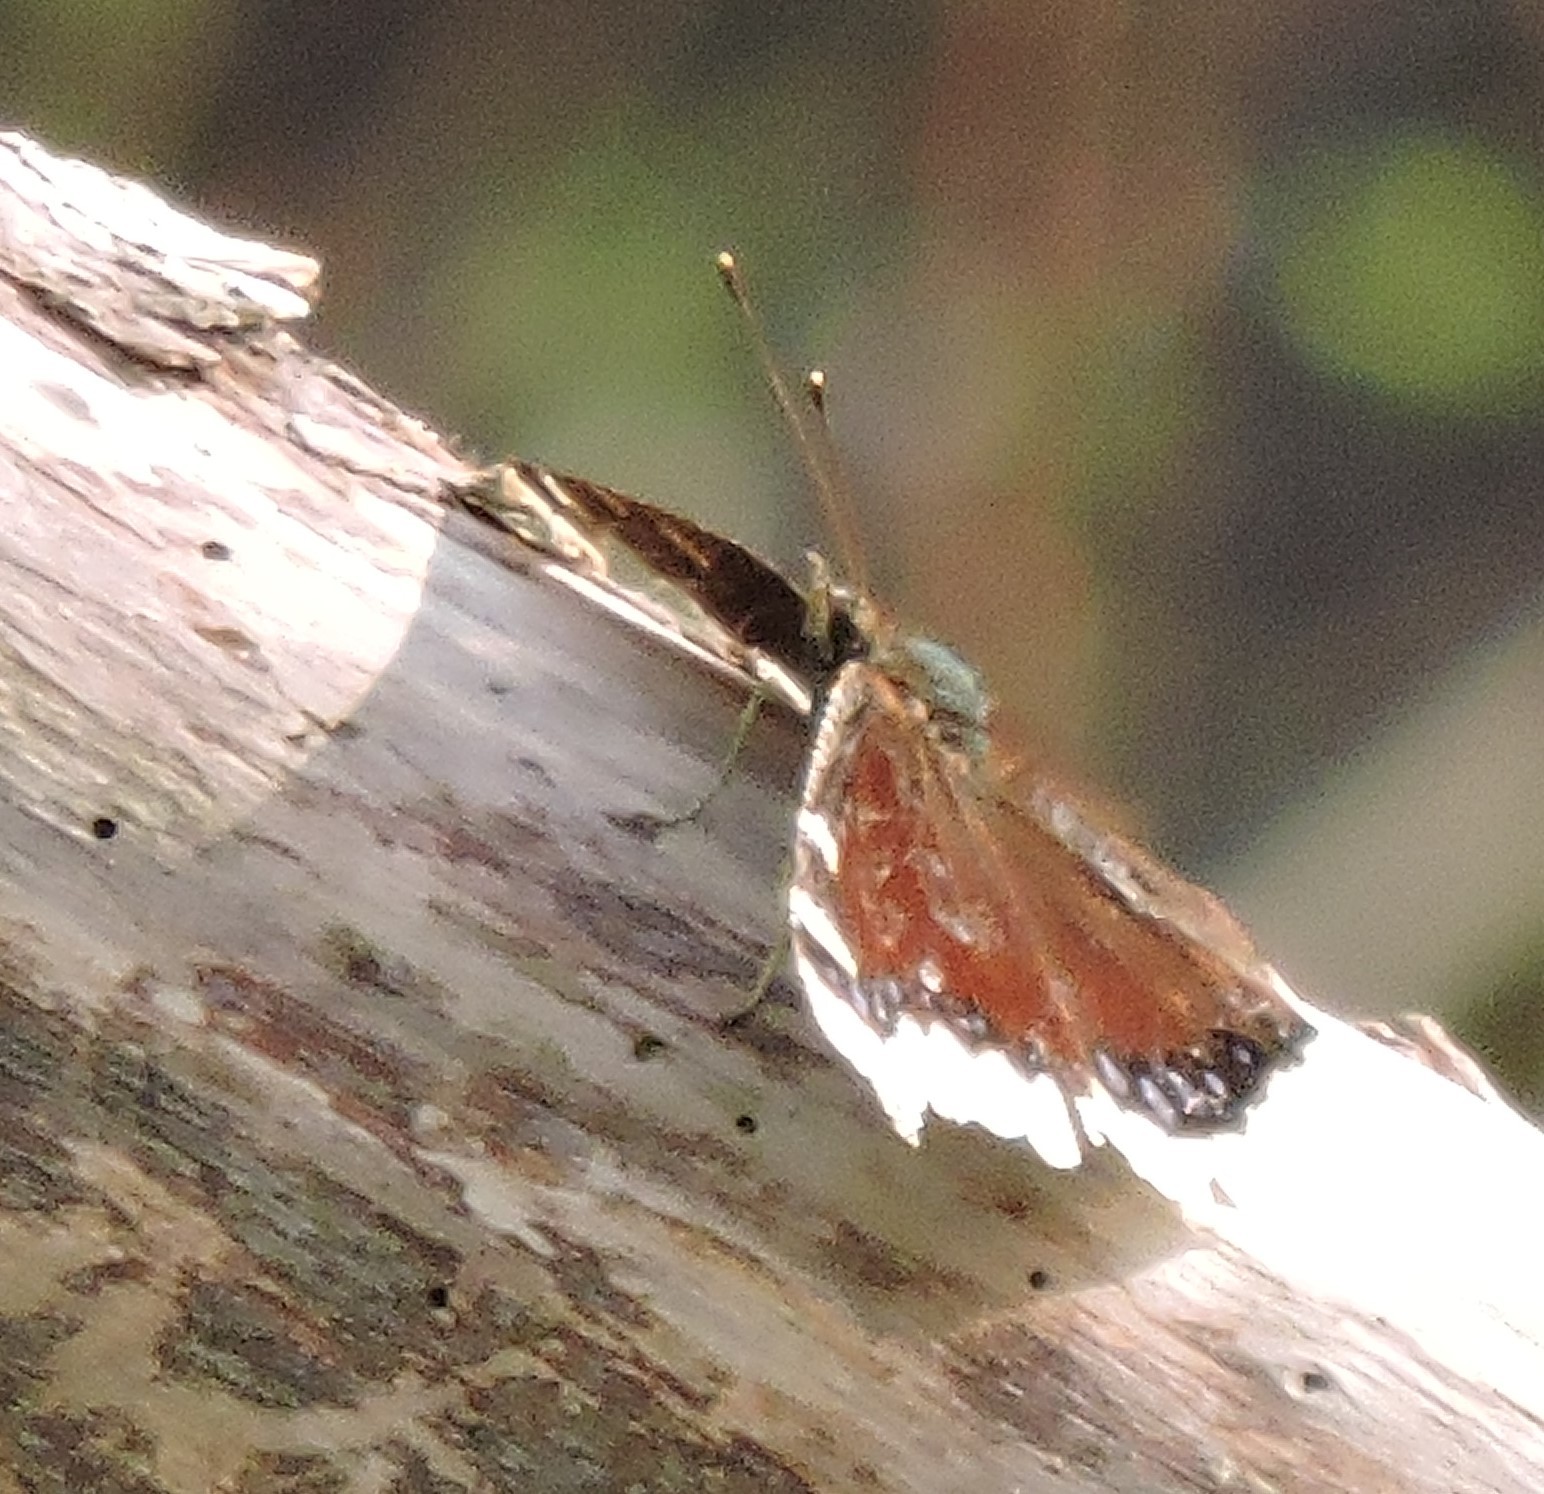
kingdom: Animalia
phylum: Arthropoda
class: Insecta
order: Lepidoptera
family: Nymphalidae
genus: Nymphalis
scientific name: Nymphalis antiopa
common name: Camberwell beauty
